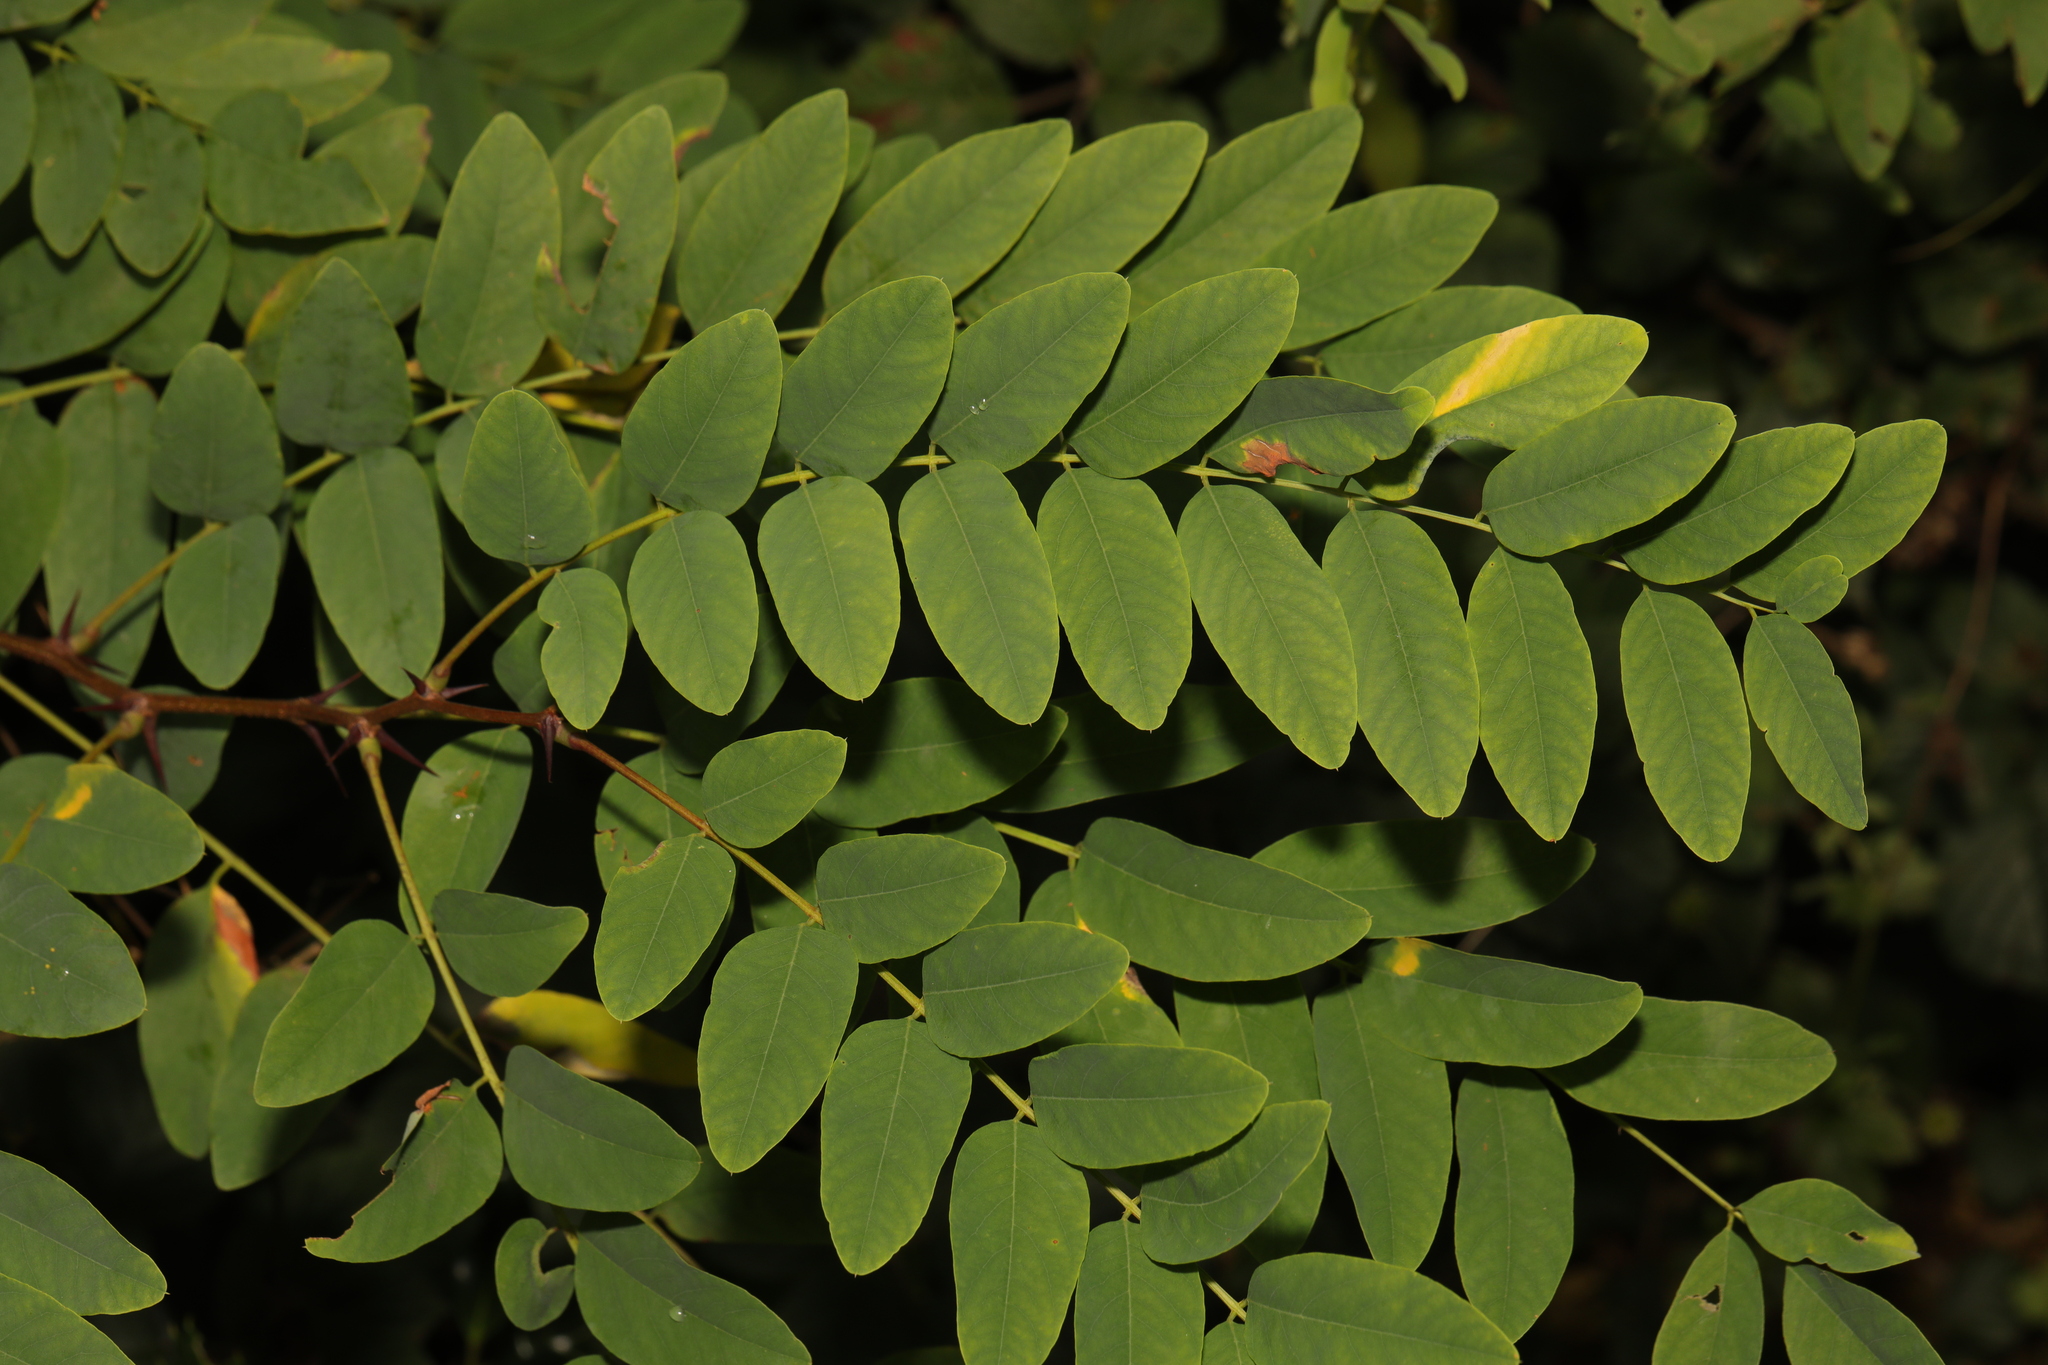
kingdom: Plantae
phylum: Tracheophyta
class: Magnoliopsida
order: Fabales
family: Fabaceae
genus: Robinia
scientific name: Robinia pseudoacacia
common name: Black locust
